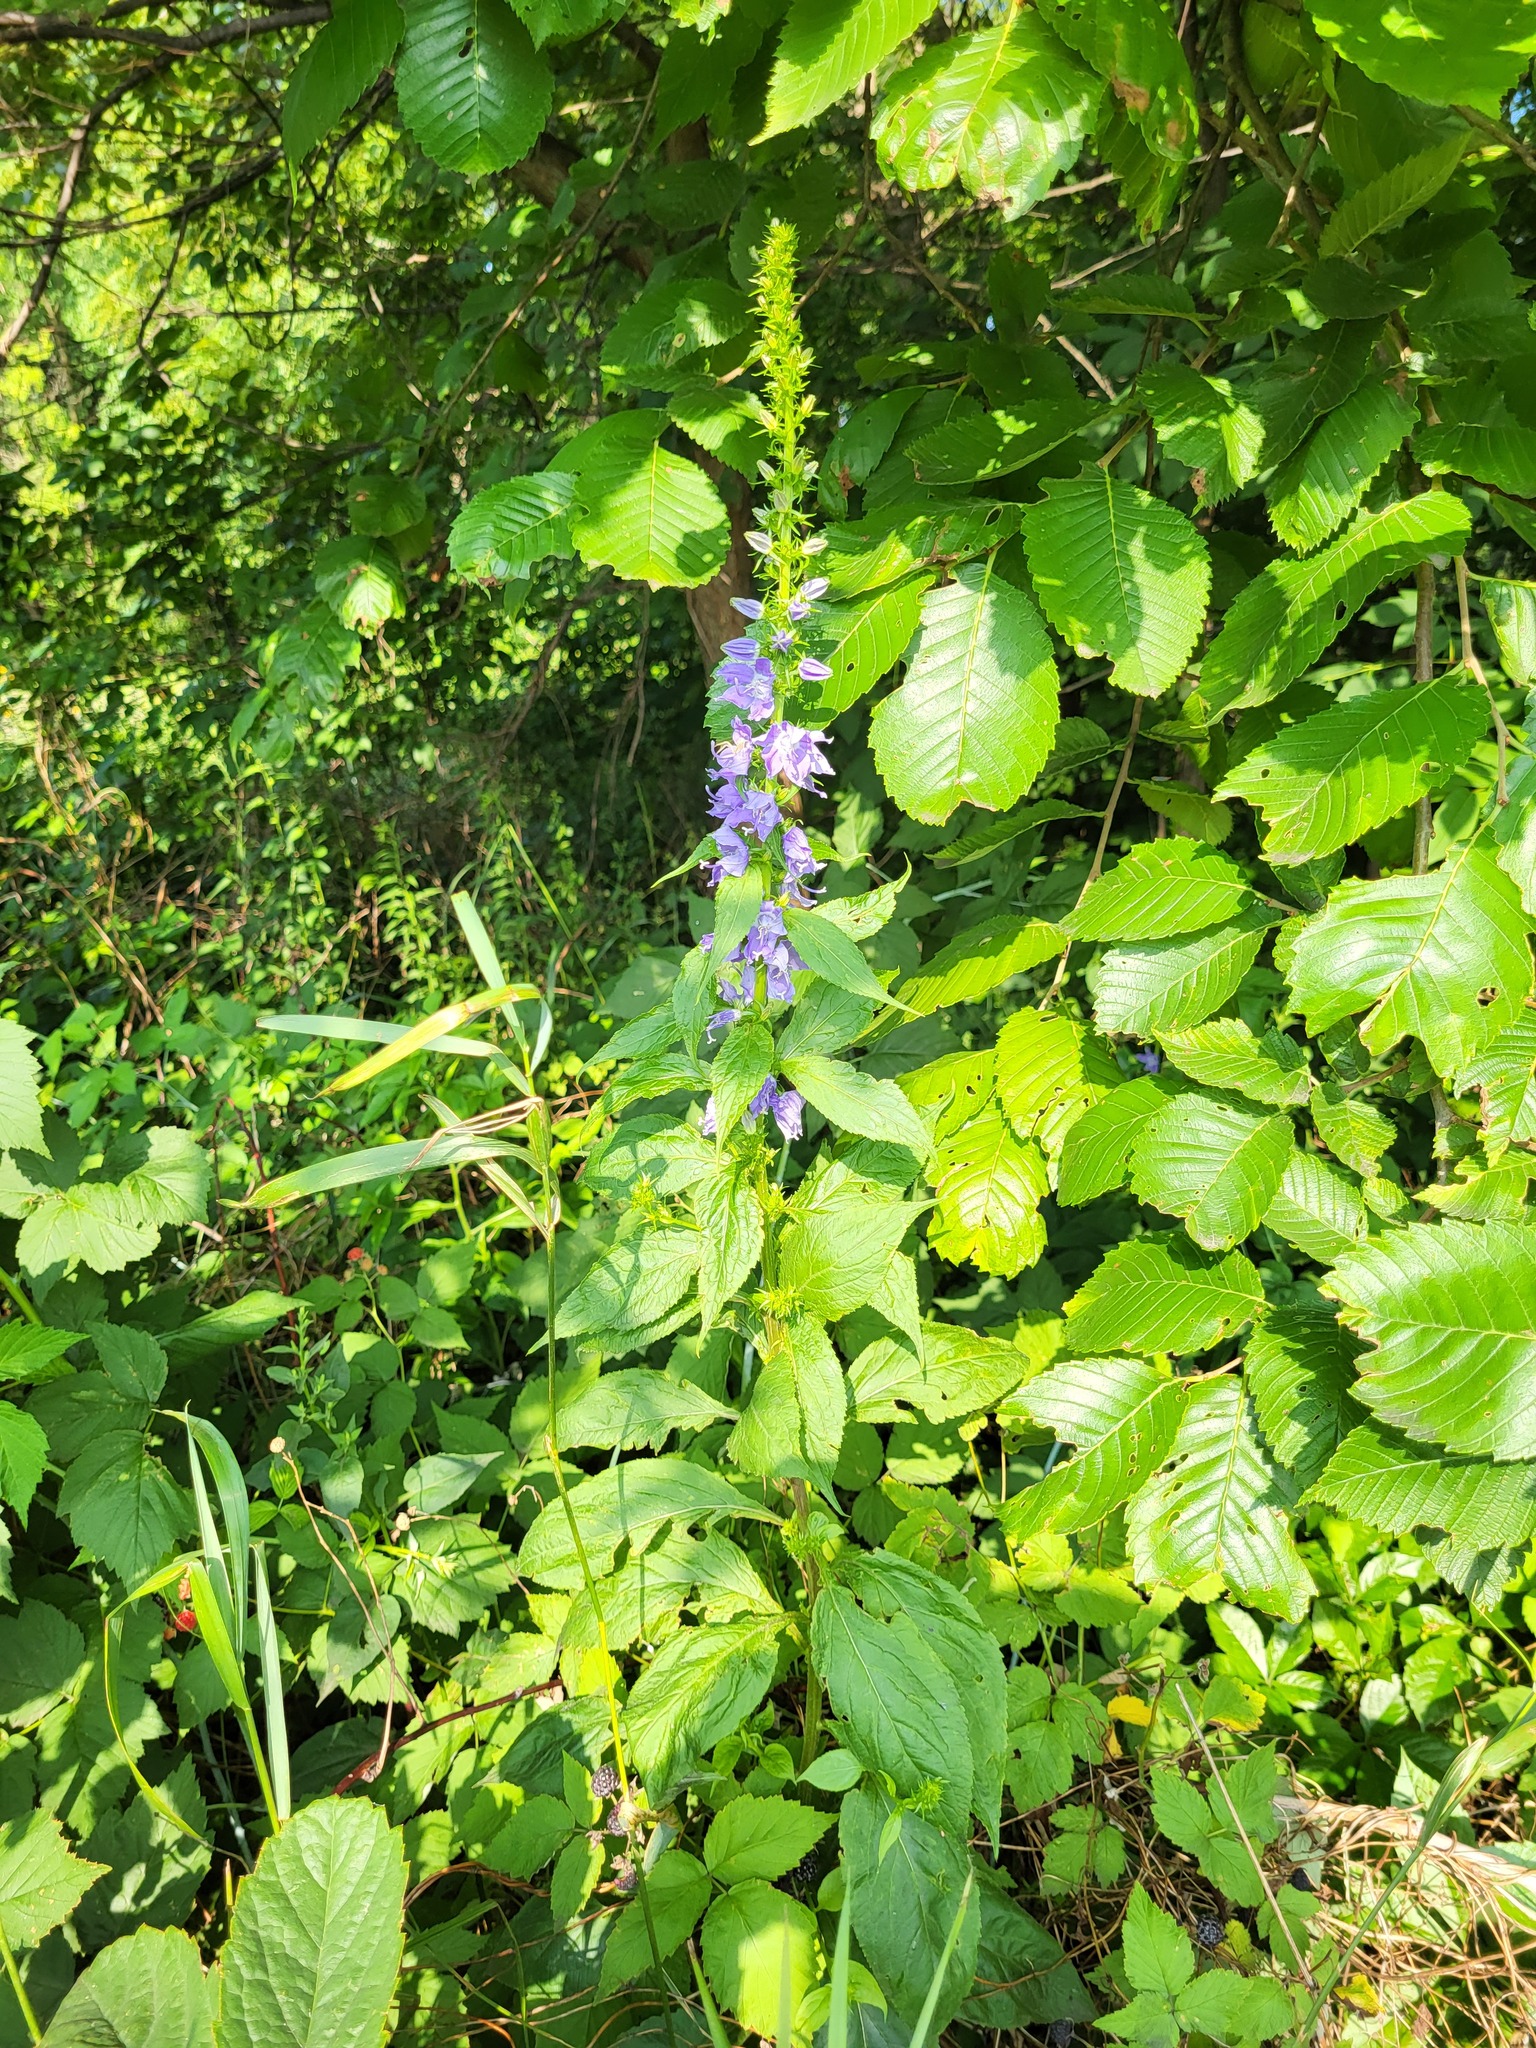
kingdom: Plantae
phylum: Tracheophyta
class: Magnoliopsida
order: Asterales
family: Campanulaceae
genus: Campanulastrum
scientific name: Campanulastrum americanum
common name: American bellflower
